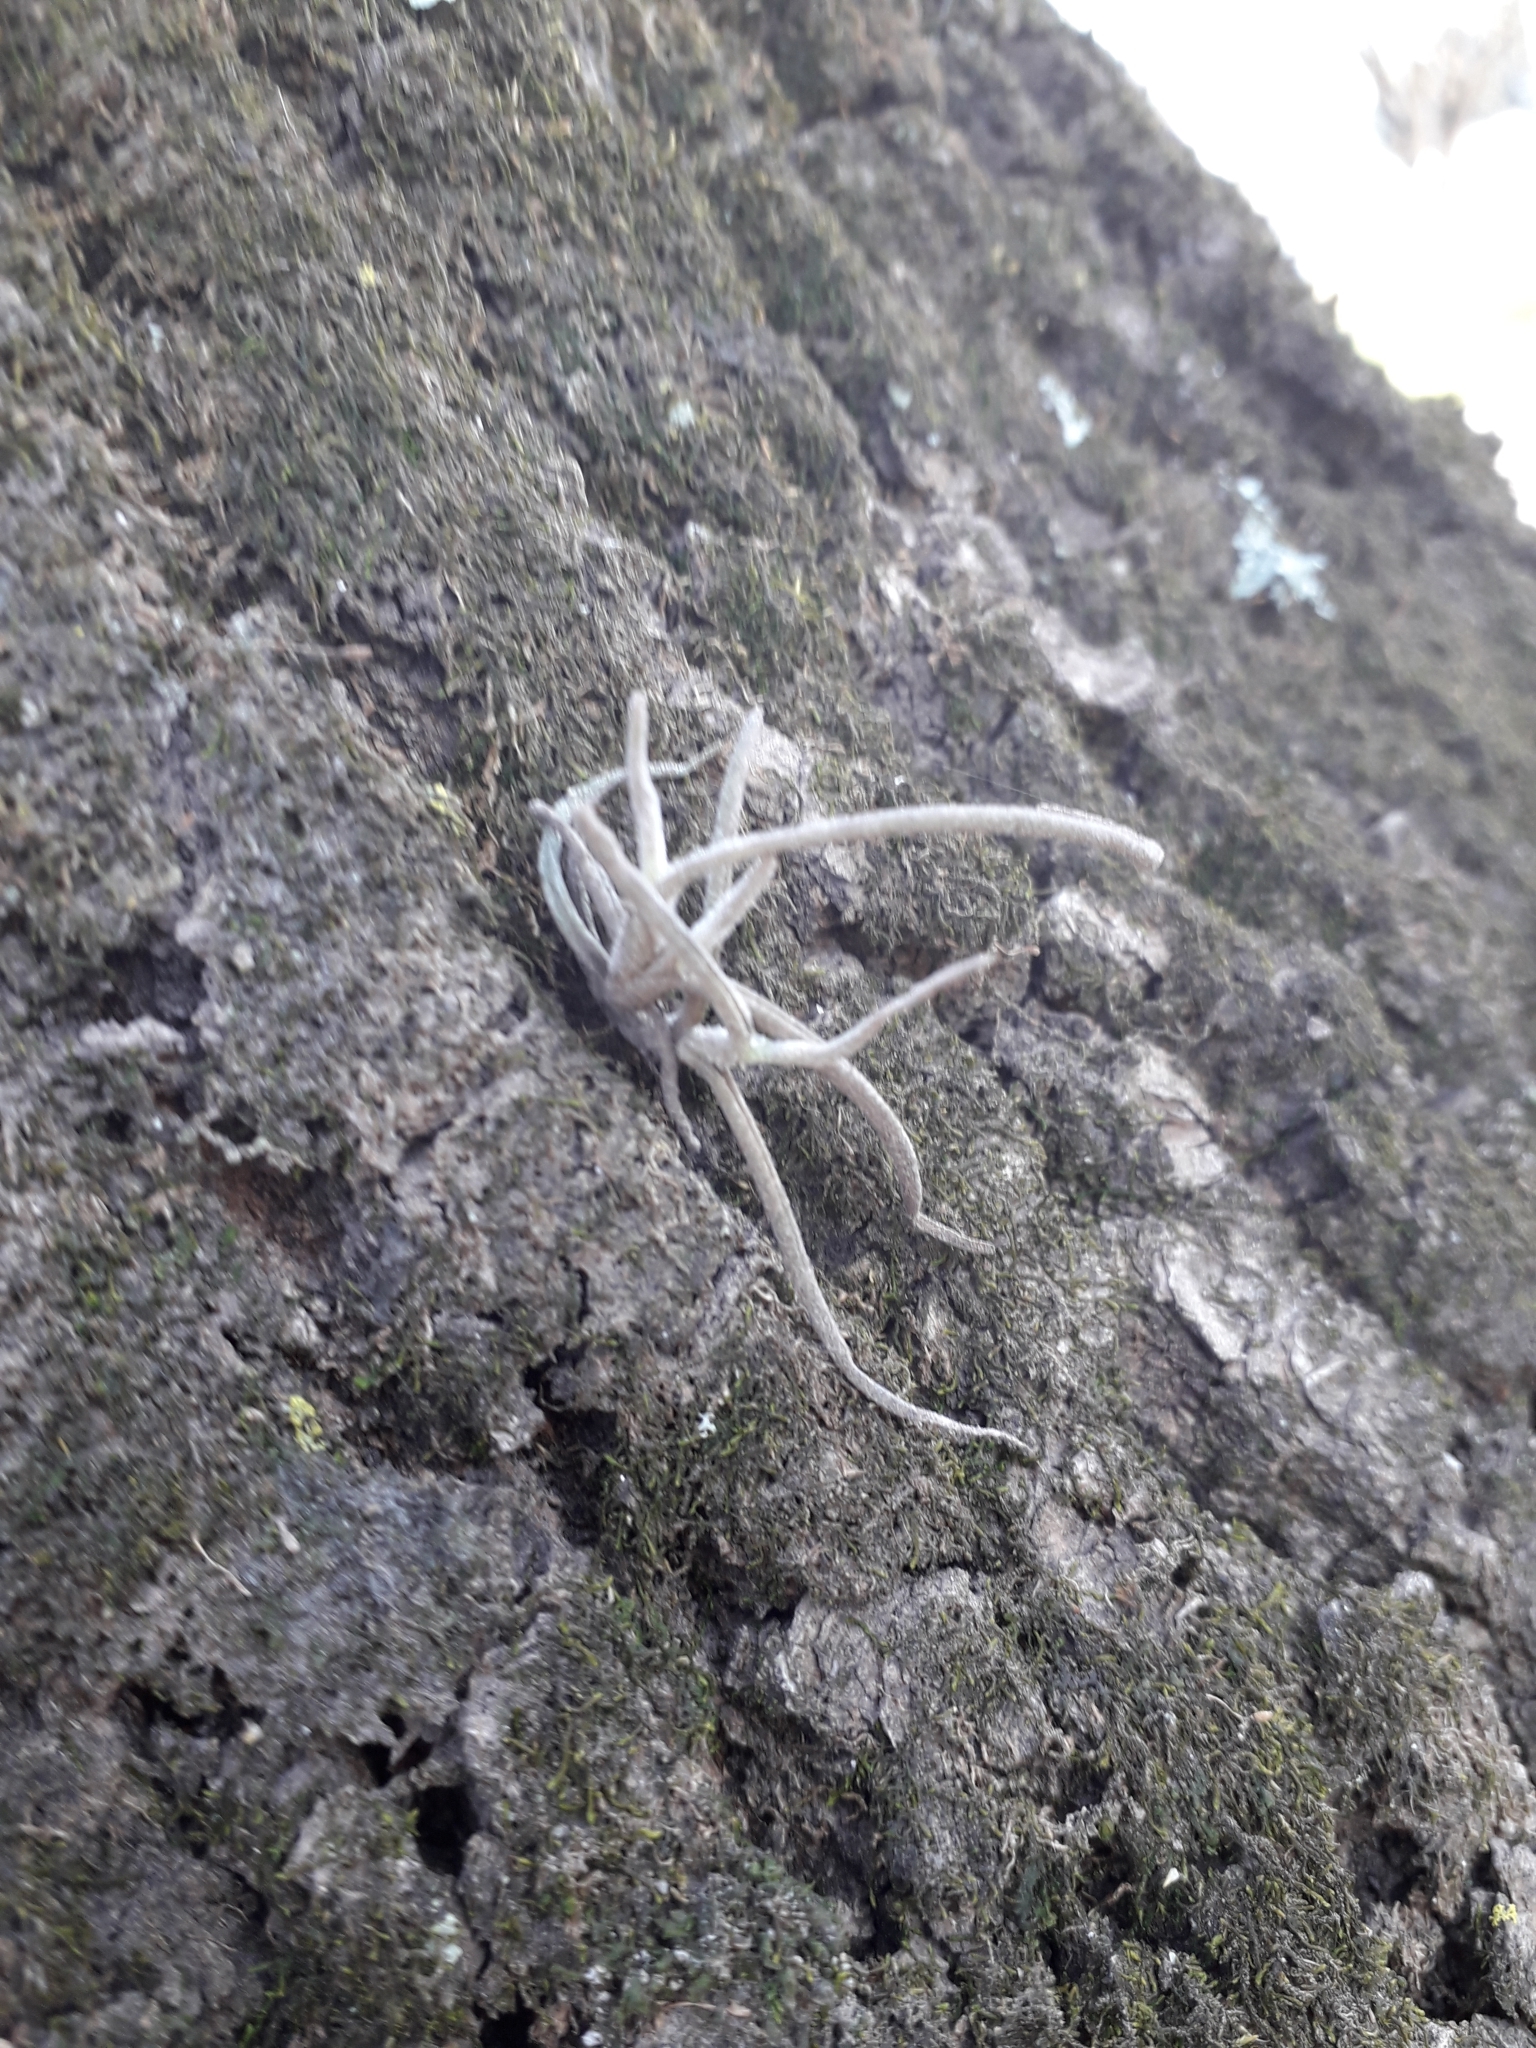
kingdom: Plantae
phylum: Tracheophyta
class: Liliopsida
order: Poales
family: Bromeliaceae
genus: Tillandsia
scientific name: Tillandsia recurvata
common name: Small ballmoss
